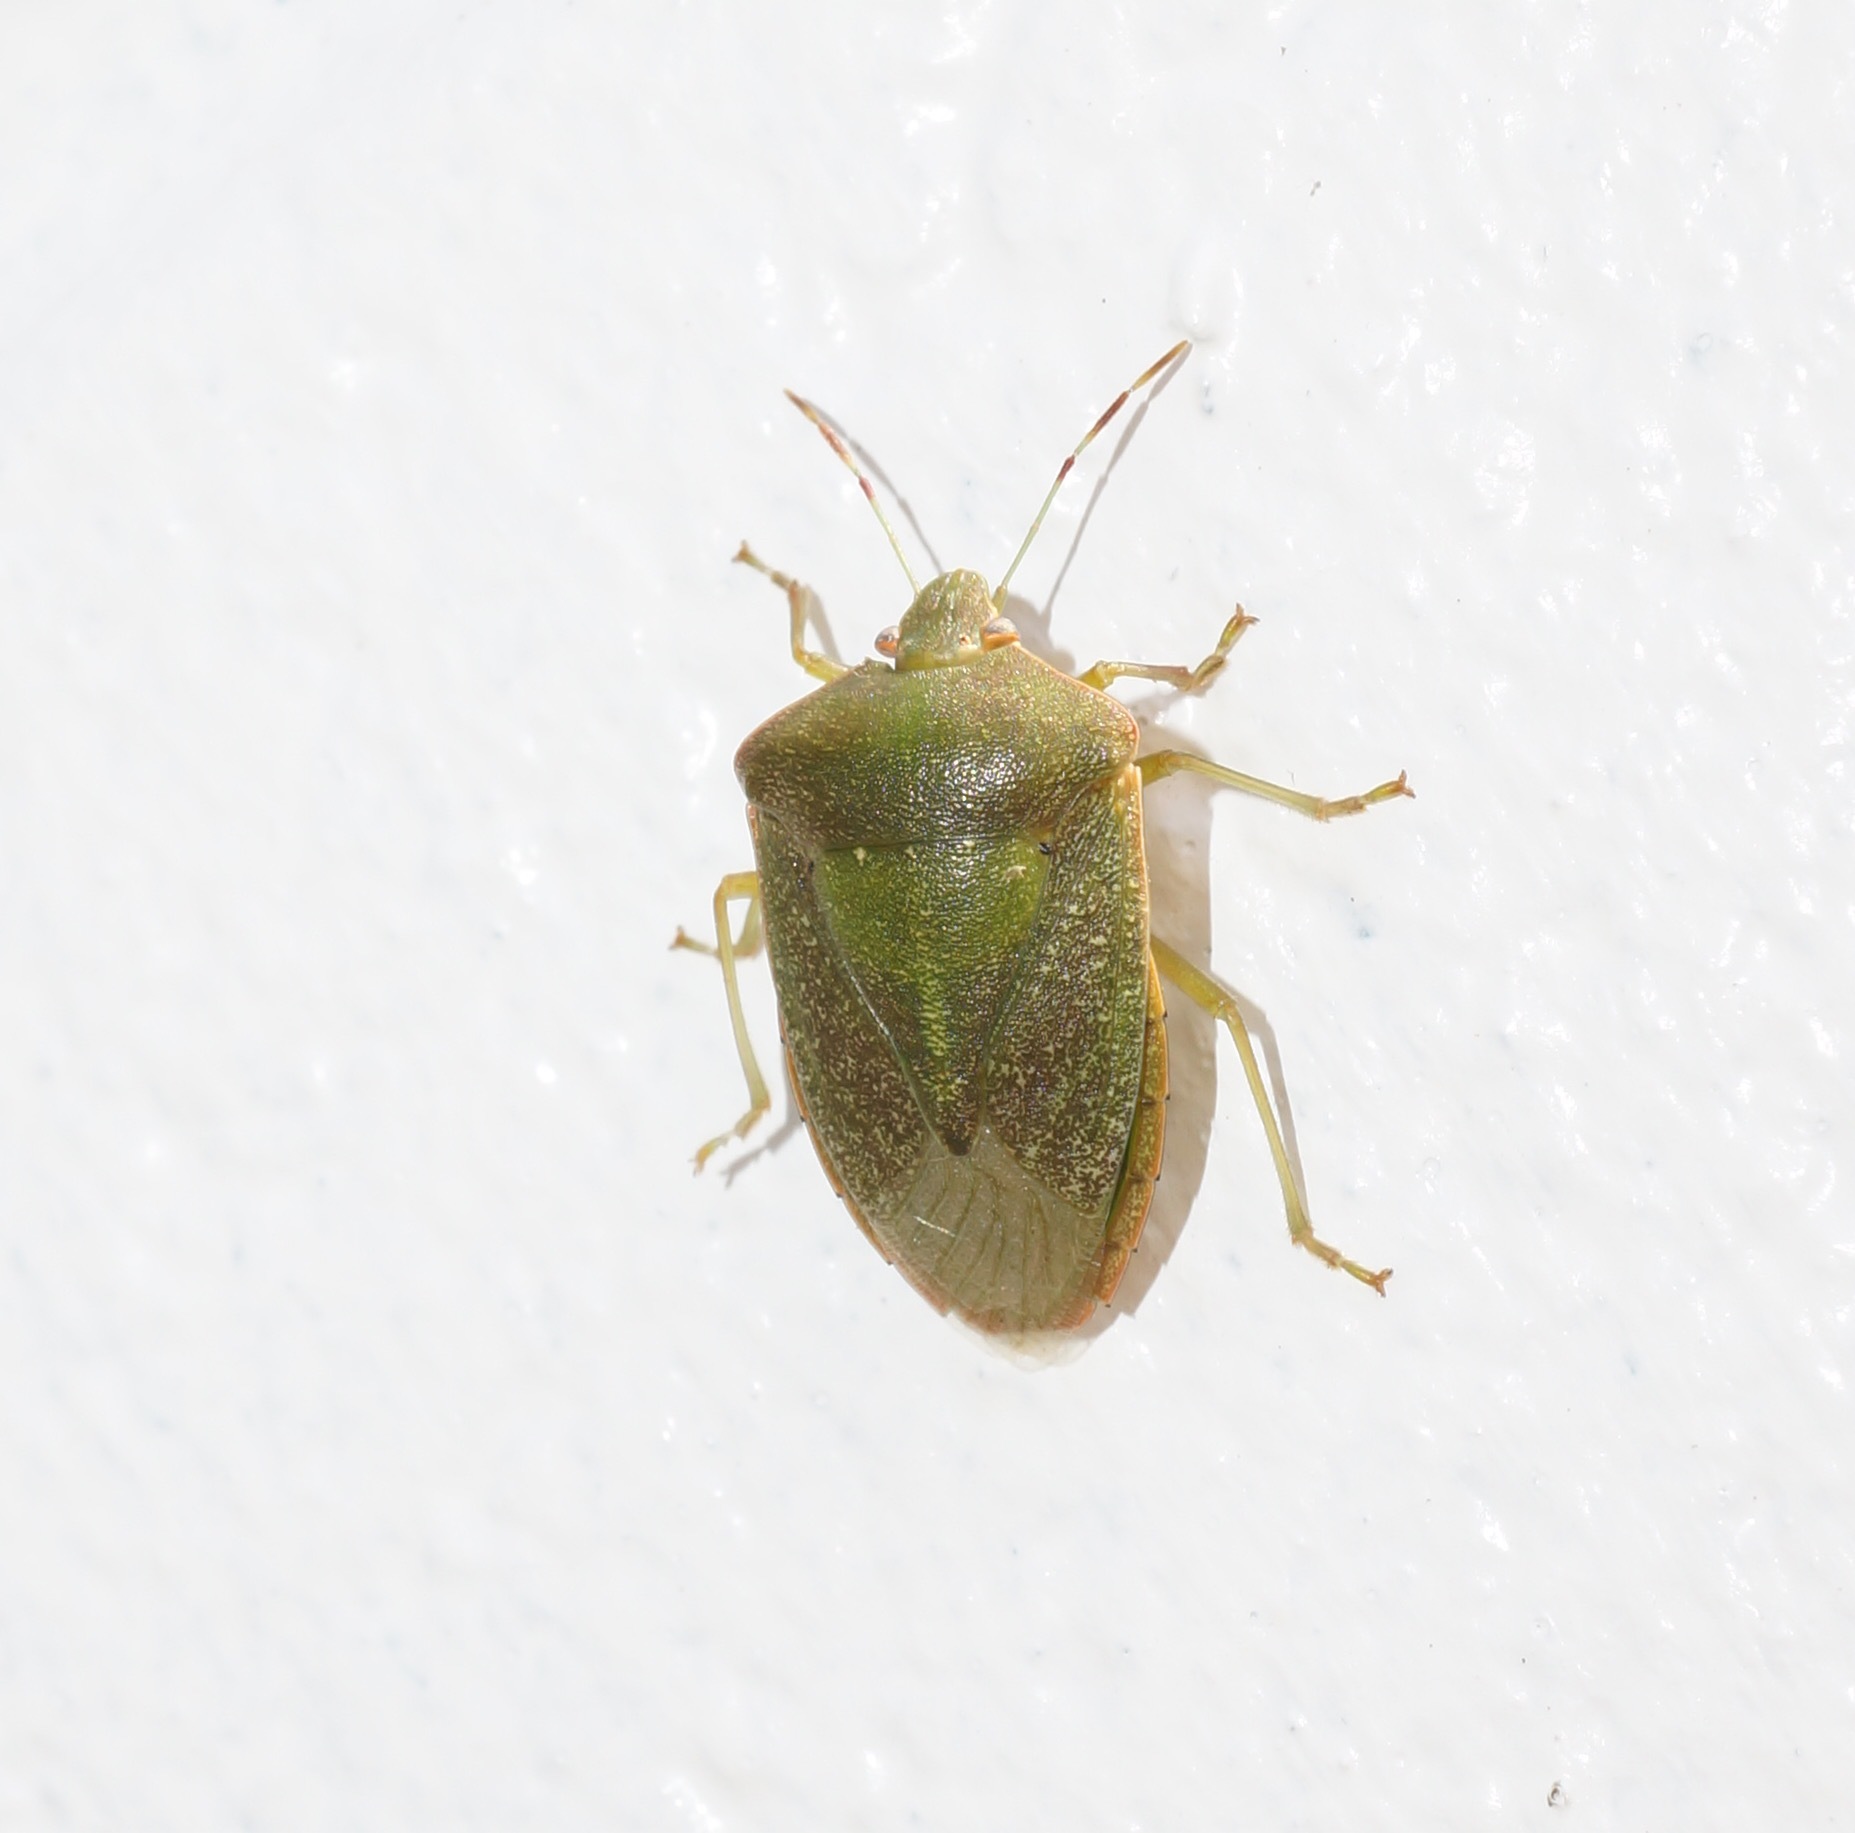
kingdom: Animalia
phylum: Arthropoda
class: Insecta
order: Hemiptera
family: Pentatomidae
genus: Nezara
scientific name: Nezara viridula
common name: Southern green stink bug
